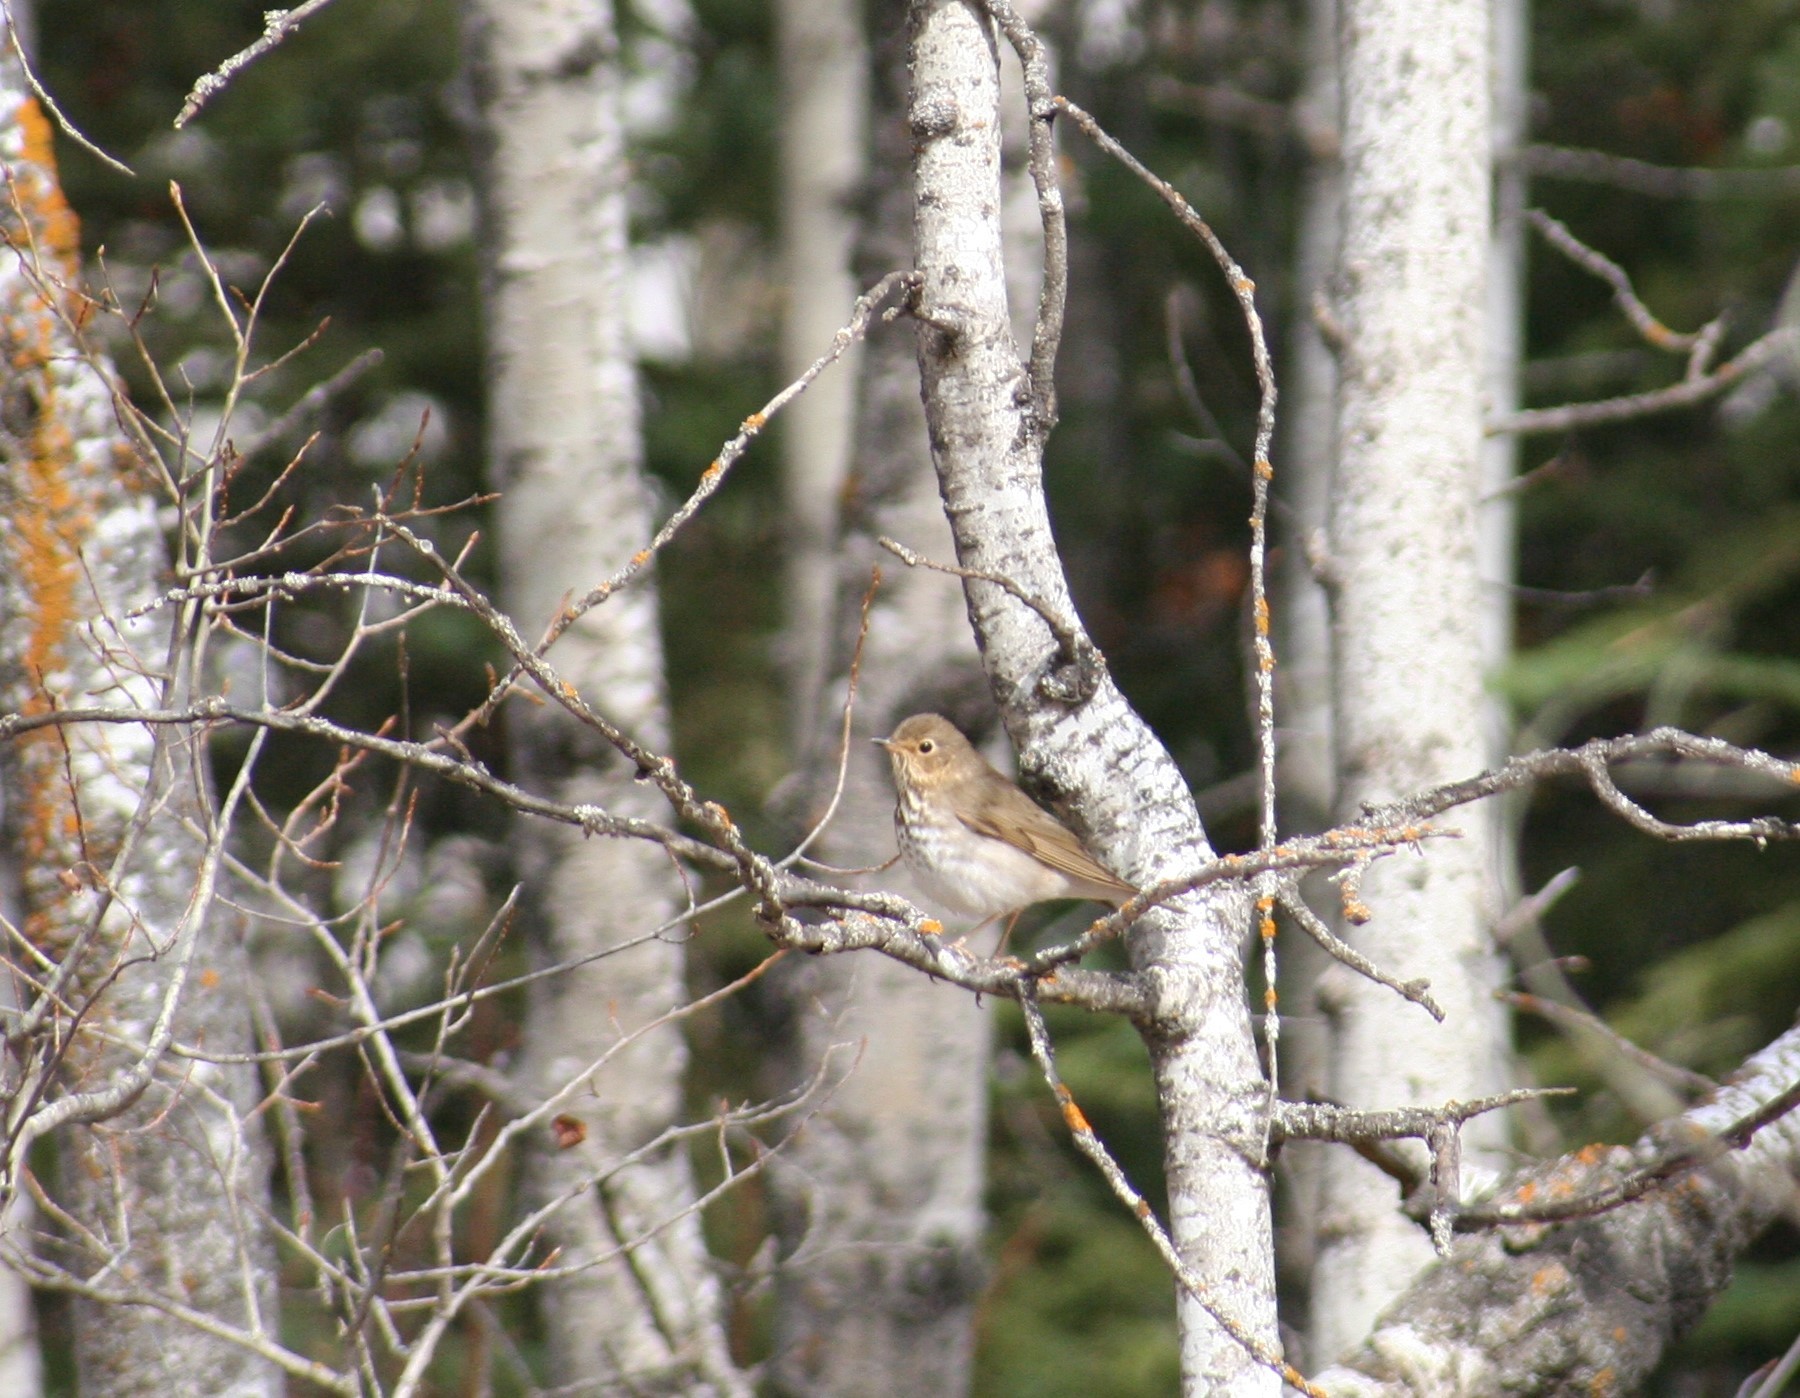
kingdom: Animalia
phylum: Chordata
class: Aves
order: Passeriformes
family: Turdidae
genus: Catharus
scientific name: Catharus ustulatus
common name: Swainson's thrush
